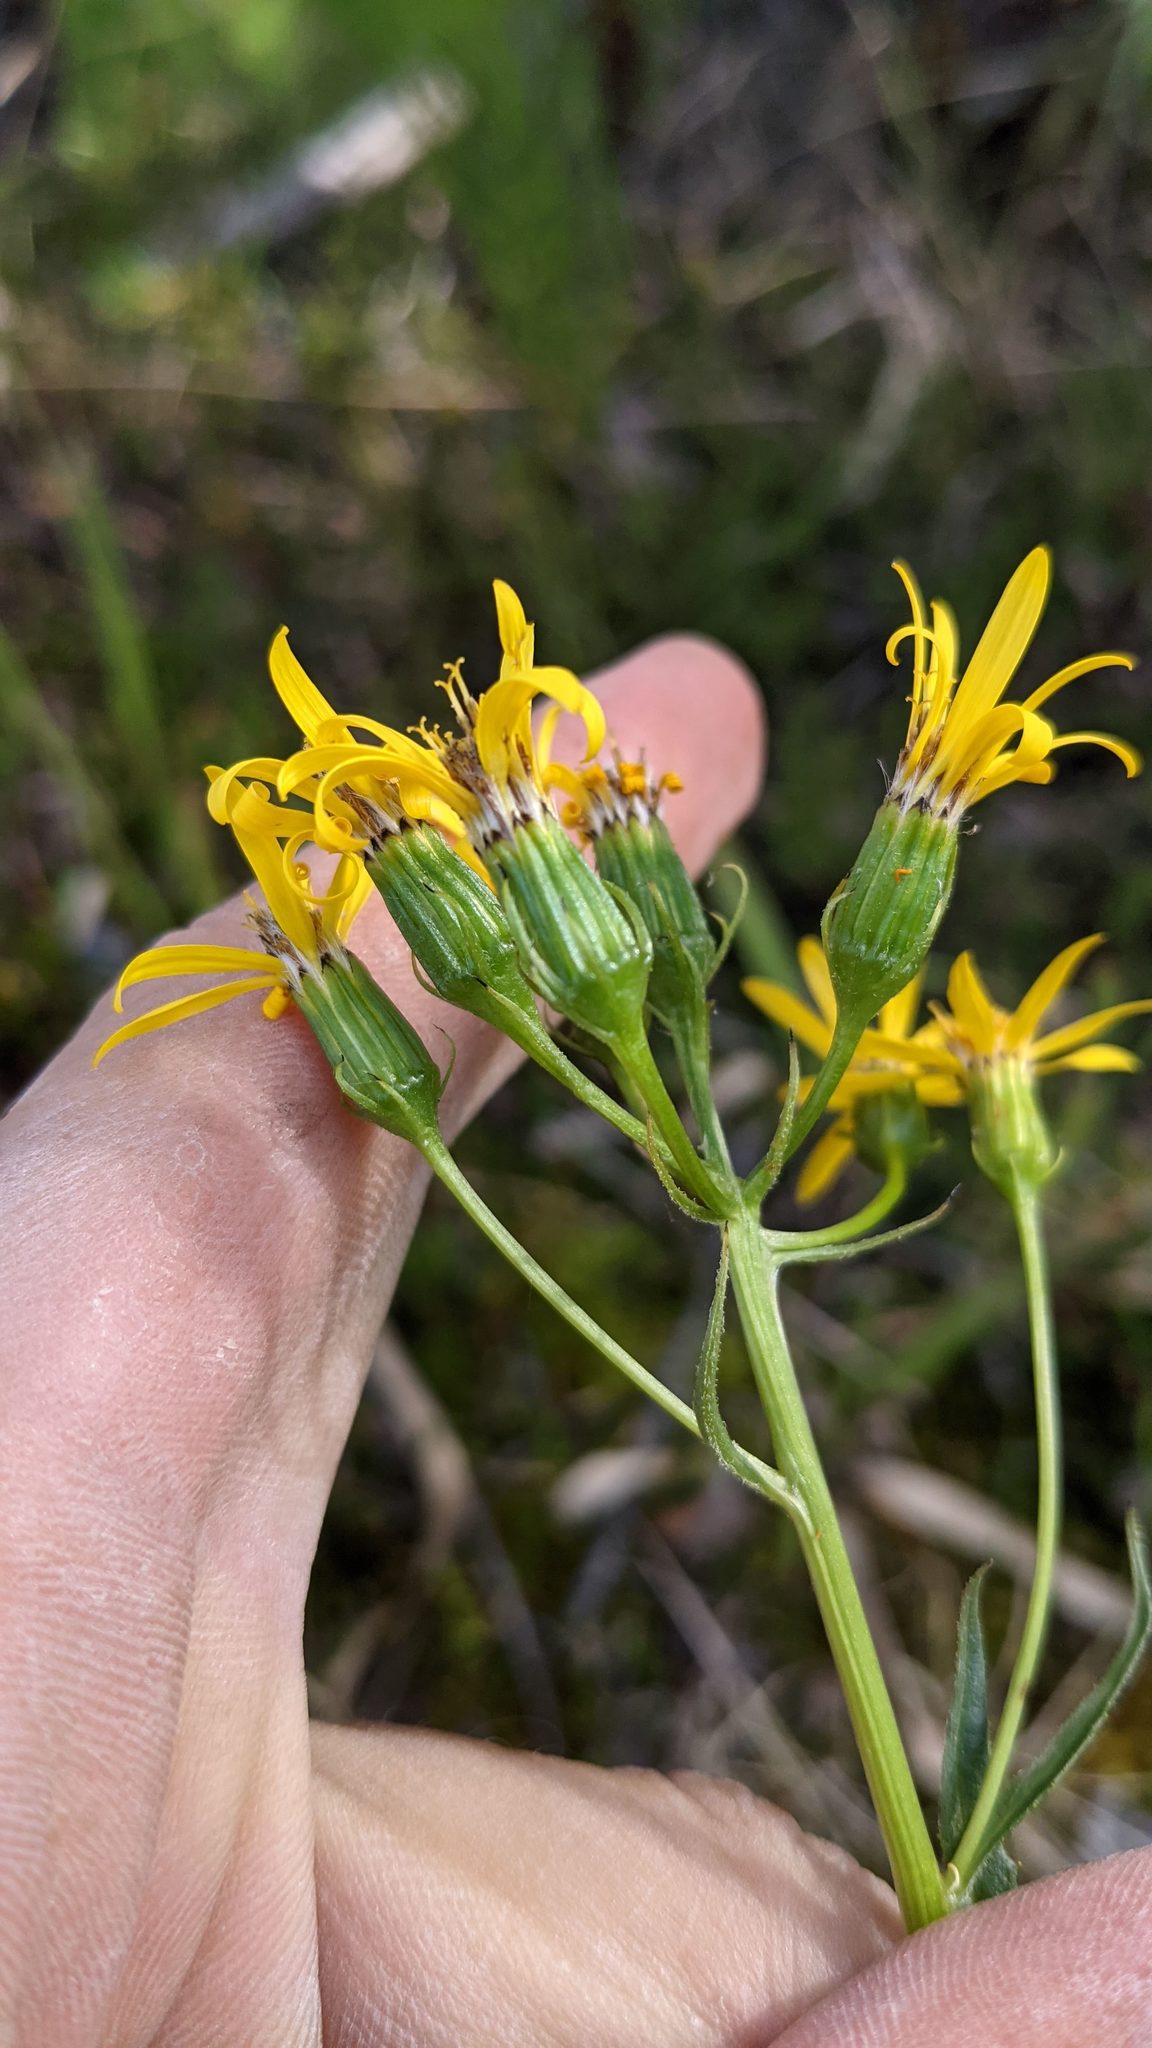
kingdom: Plantae
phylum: Tracheophyta
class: Magnoliopsida
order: Asterales
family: Asteraceae
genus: Senecio
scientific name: Senecio triangularis
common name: Arrowleaf butterweed
